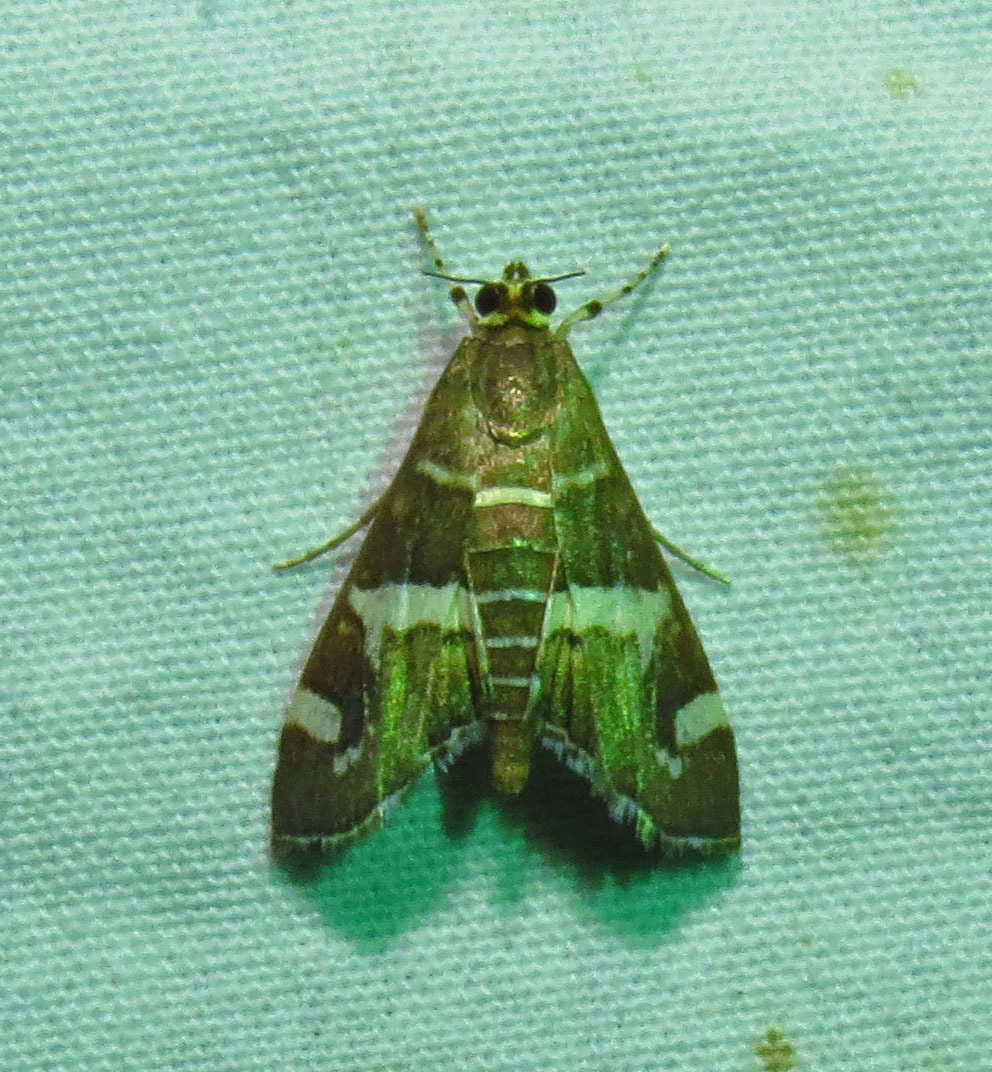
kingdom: Animalia
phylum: Arthropoda
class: Insecta
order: Lepidoptera
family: Crambidae
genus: Spoladea
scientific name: Spoladea recurvalis
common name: Beet webworm moth
